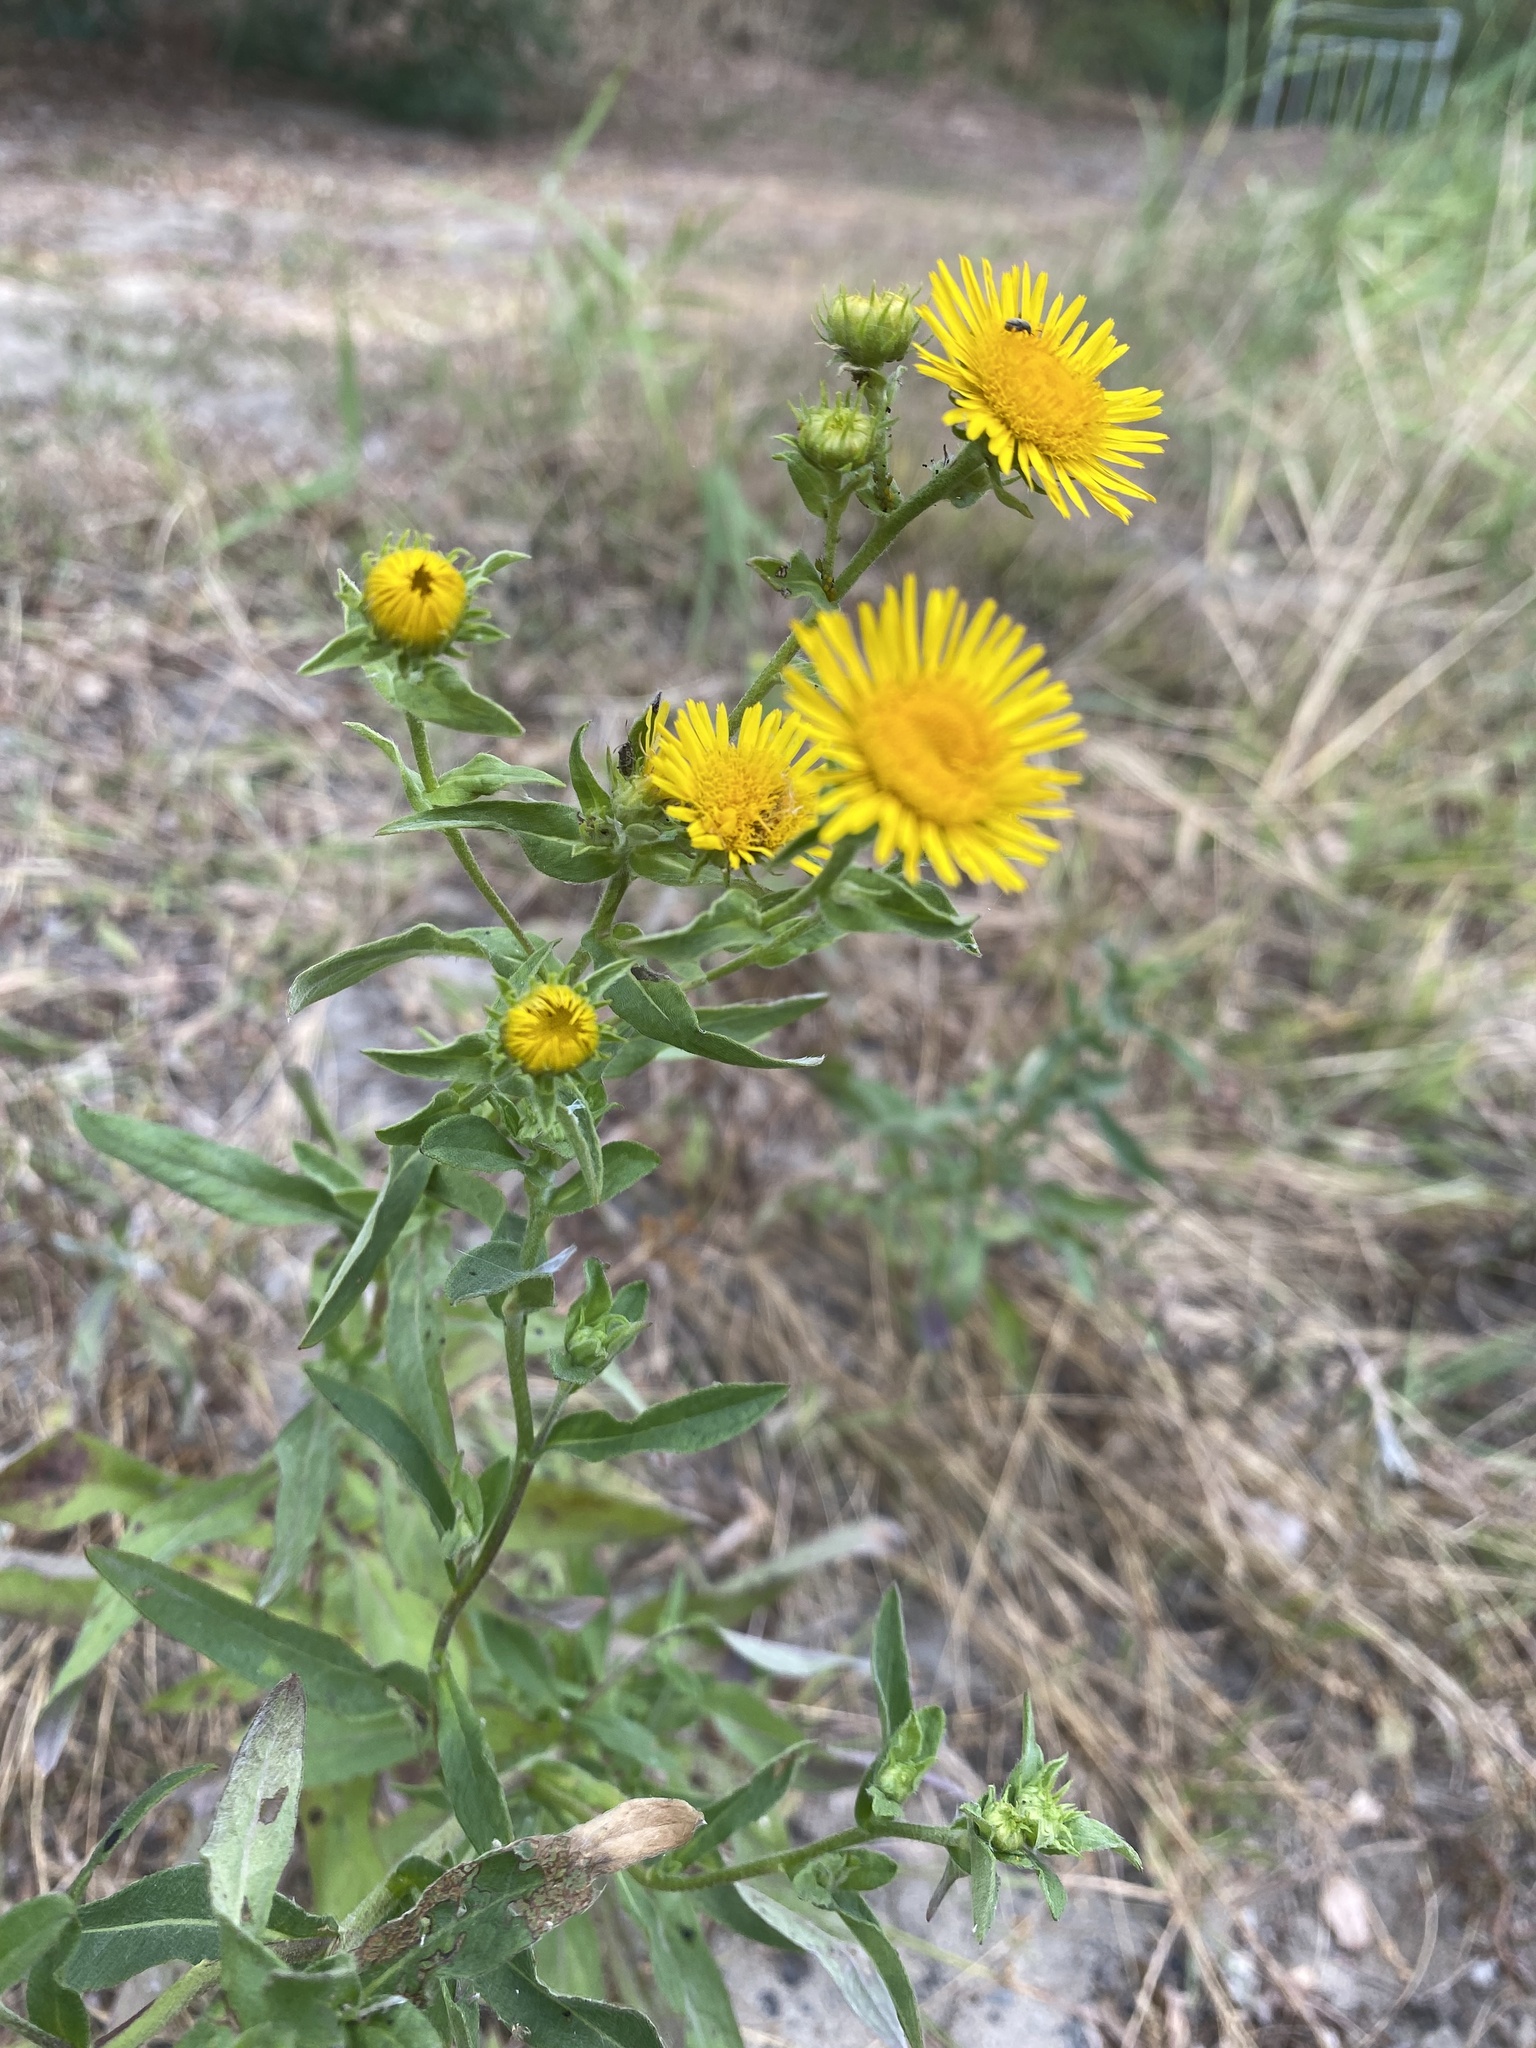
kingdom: Plantae
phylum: Tracheophyta
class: Magnoliopsida
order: Asterales
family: Asteraceae
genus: Pentanema
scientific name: Pentanema britannicum
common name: British elecampane
